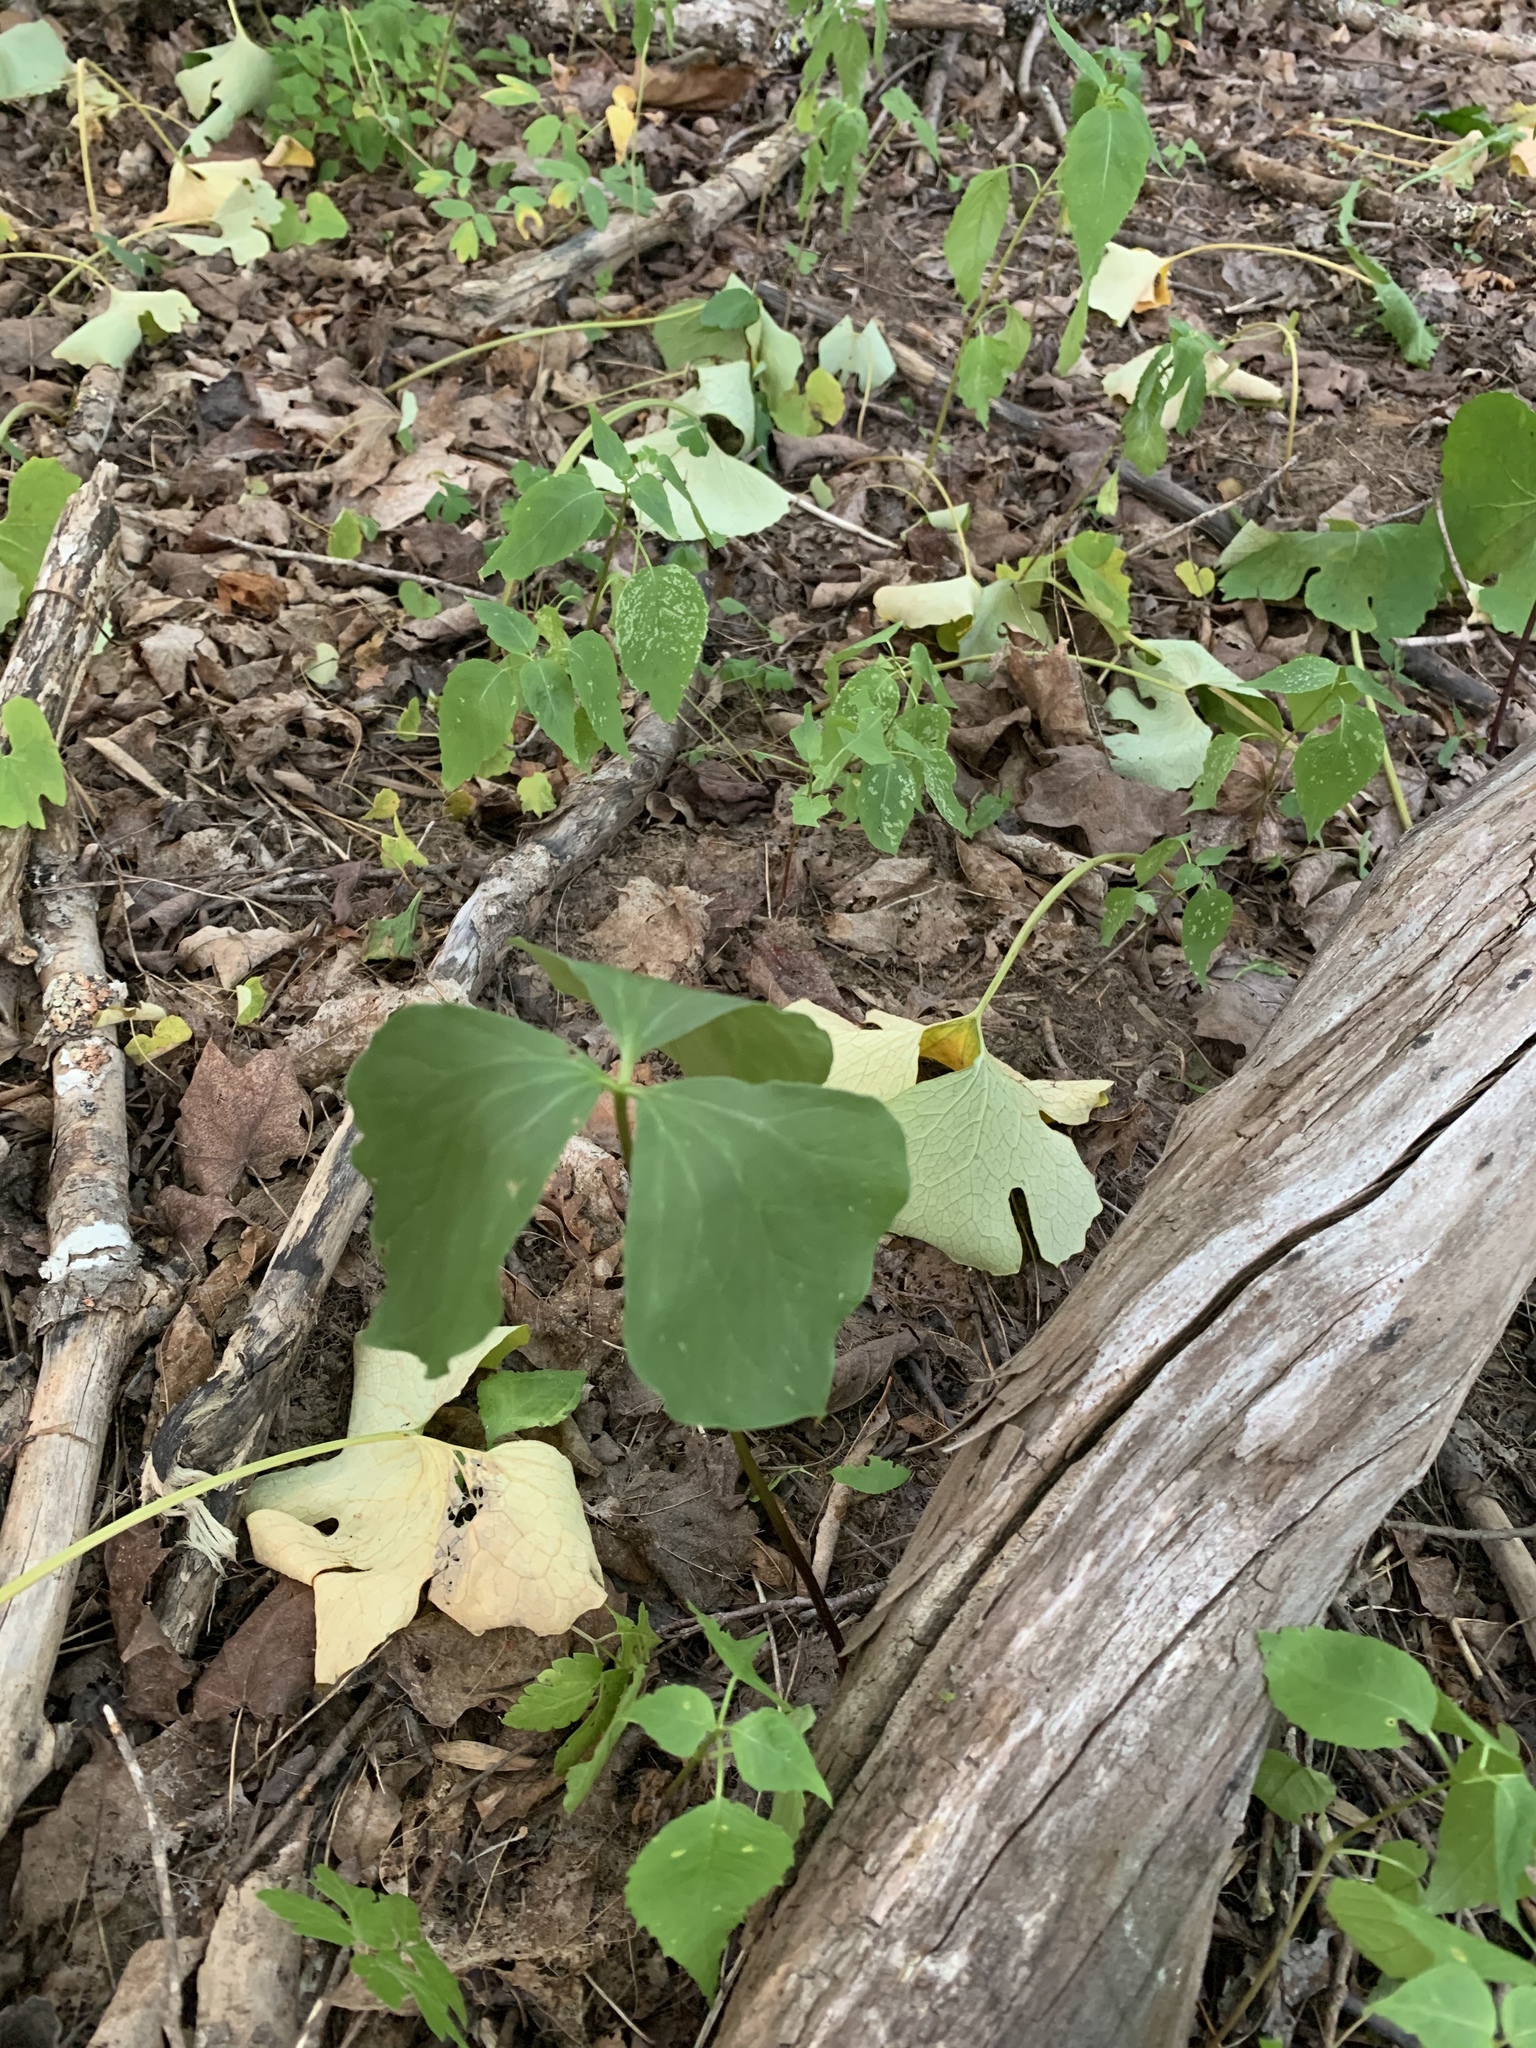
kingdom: Plantae
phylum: Tracheophyta
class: Liliopsida
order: Liliales
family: Melanthiaceae
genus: Trillium
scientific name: Trillium cernuum
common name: Nodding trillium
